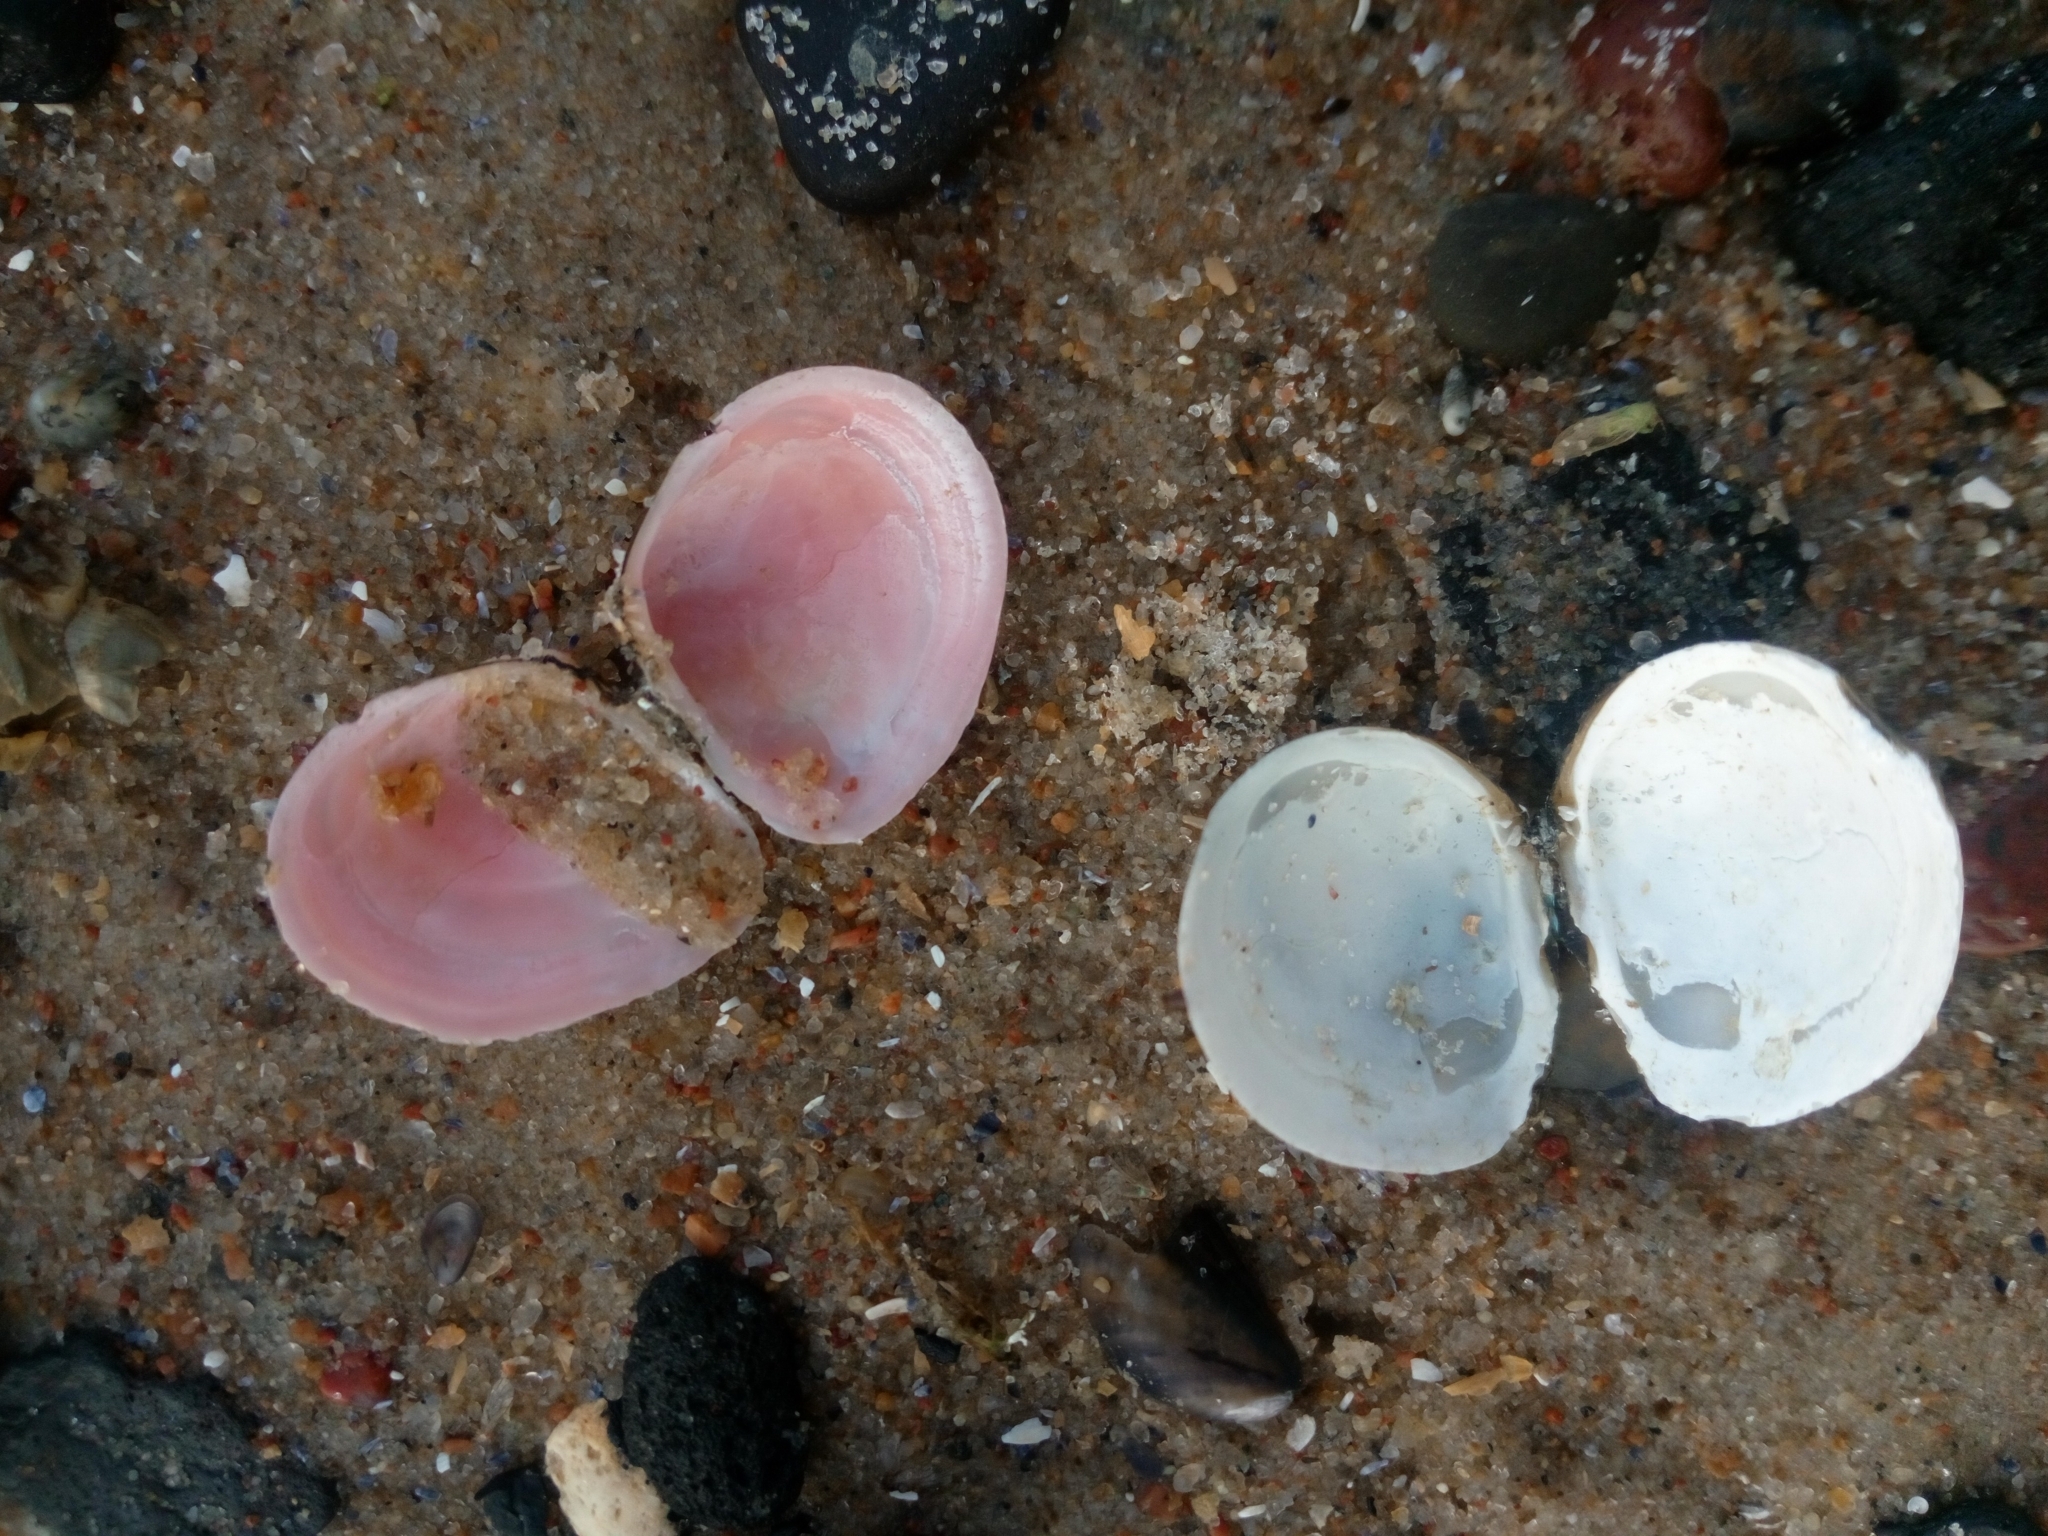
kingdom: Animalia
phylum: Mollusca
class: Bivalvia
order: Cardiida
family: Tellinidae
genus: Macoma
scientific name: Macoma balthica
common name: Baltic tellin
